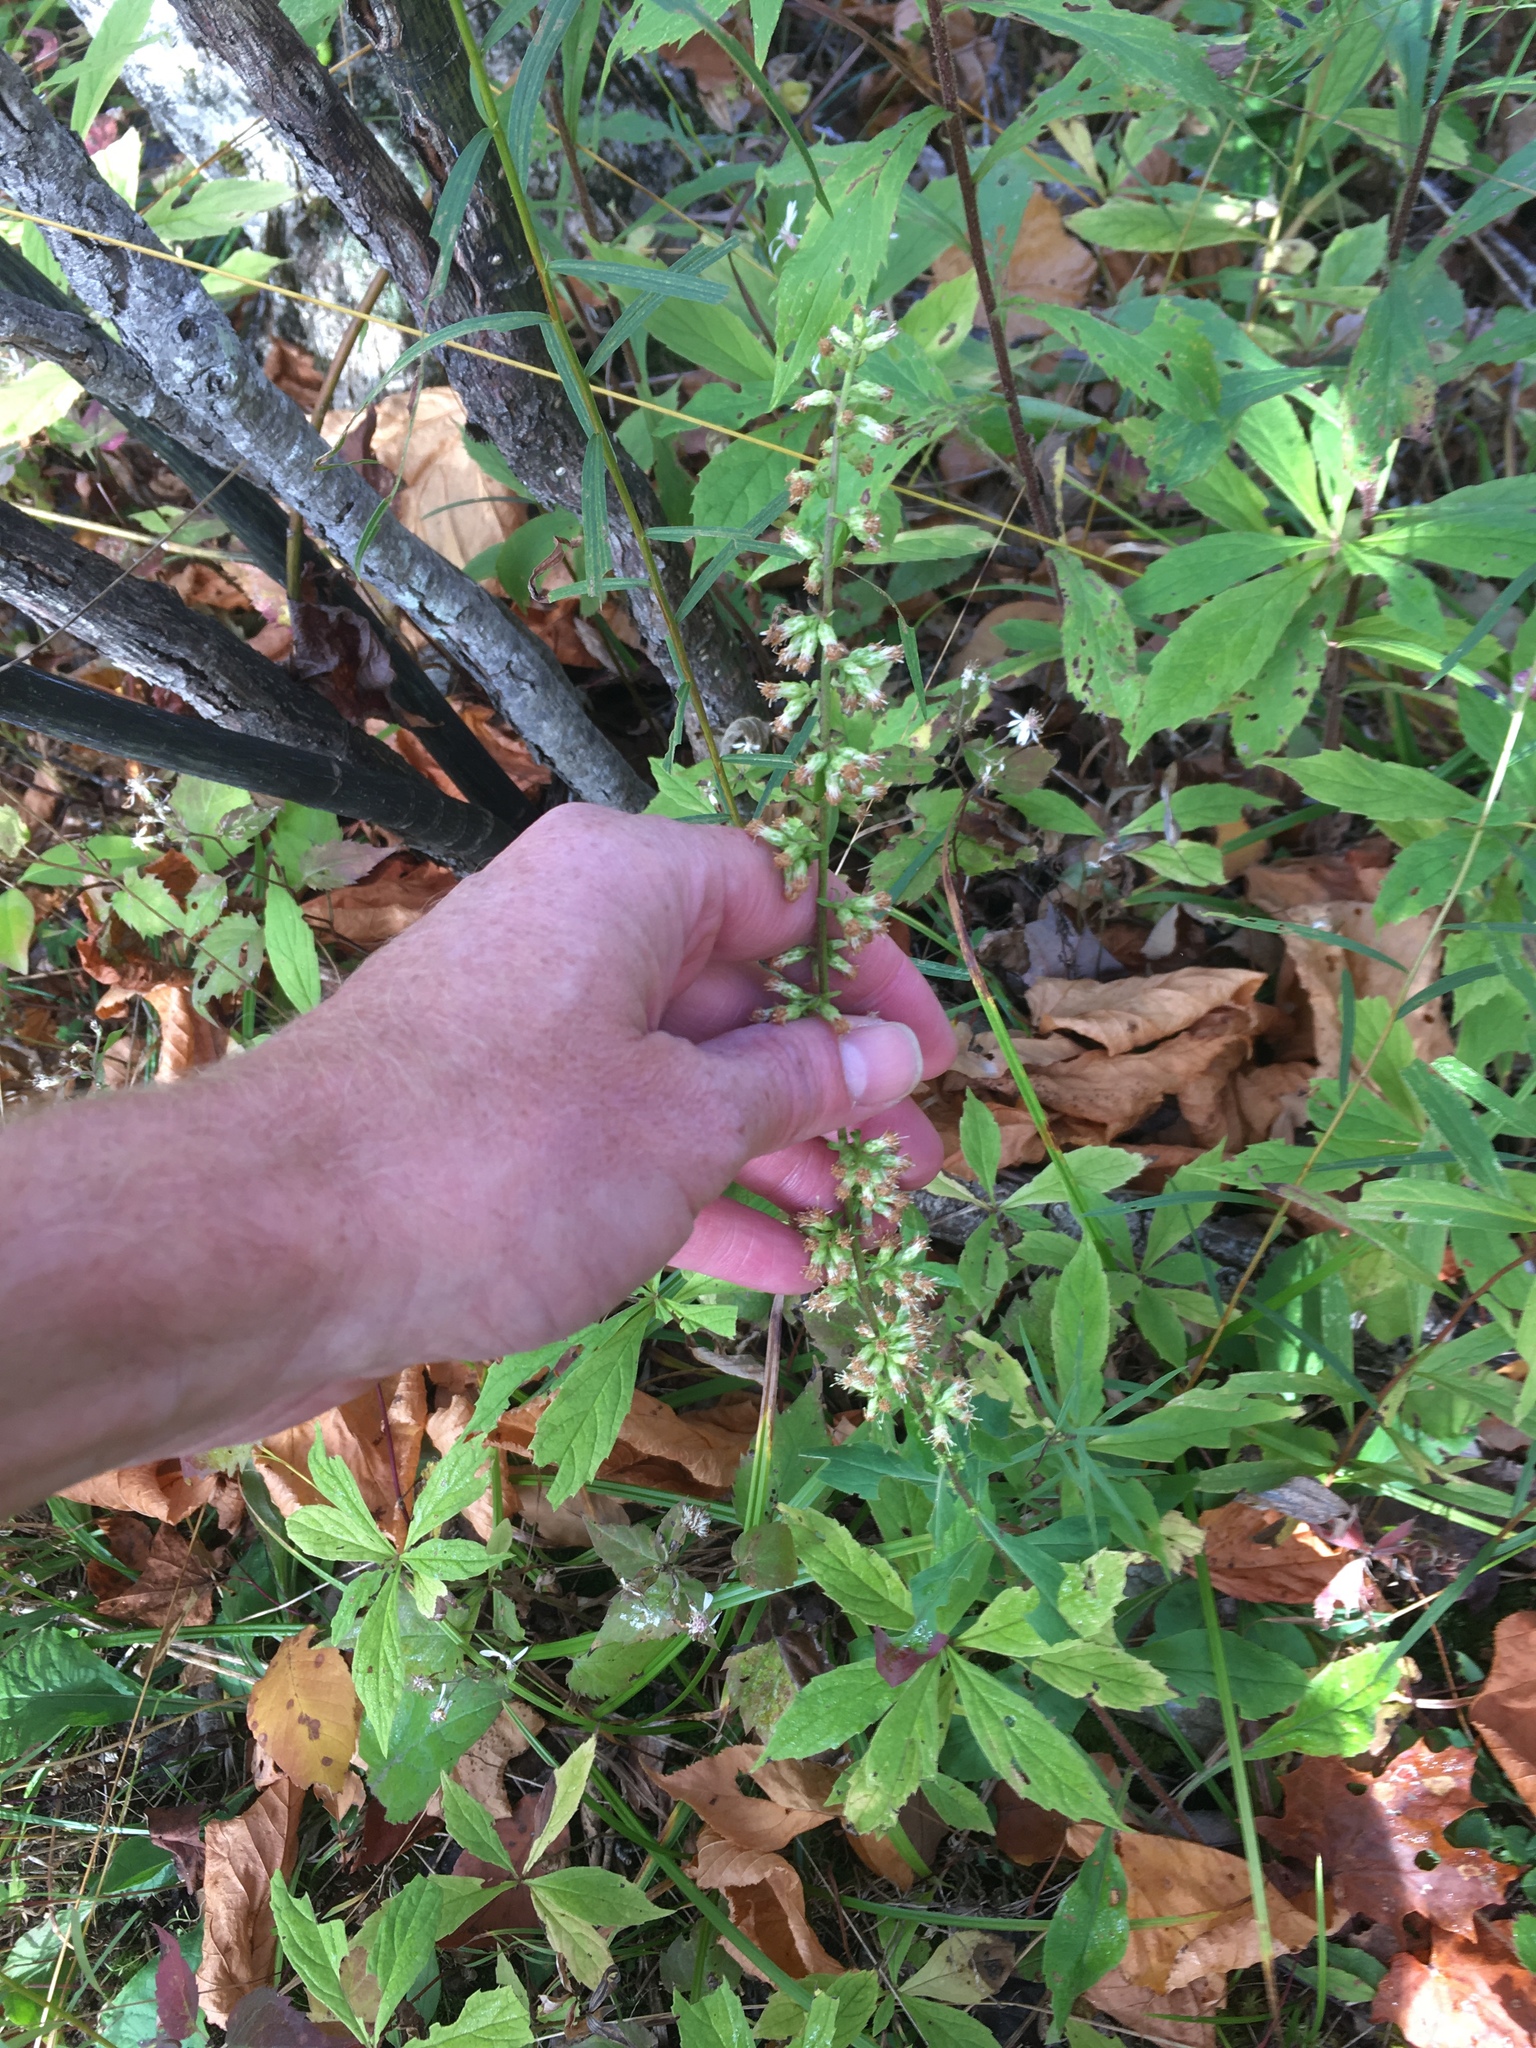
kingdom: Plantae
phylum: Tracheophyta
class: Magnoliopsida
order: Asterales
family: Asteraceae
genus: Solidago
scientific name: Solidago bicolor
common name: Silverrod
